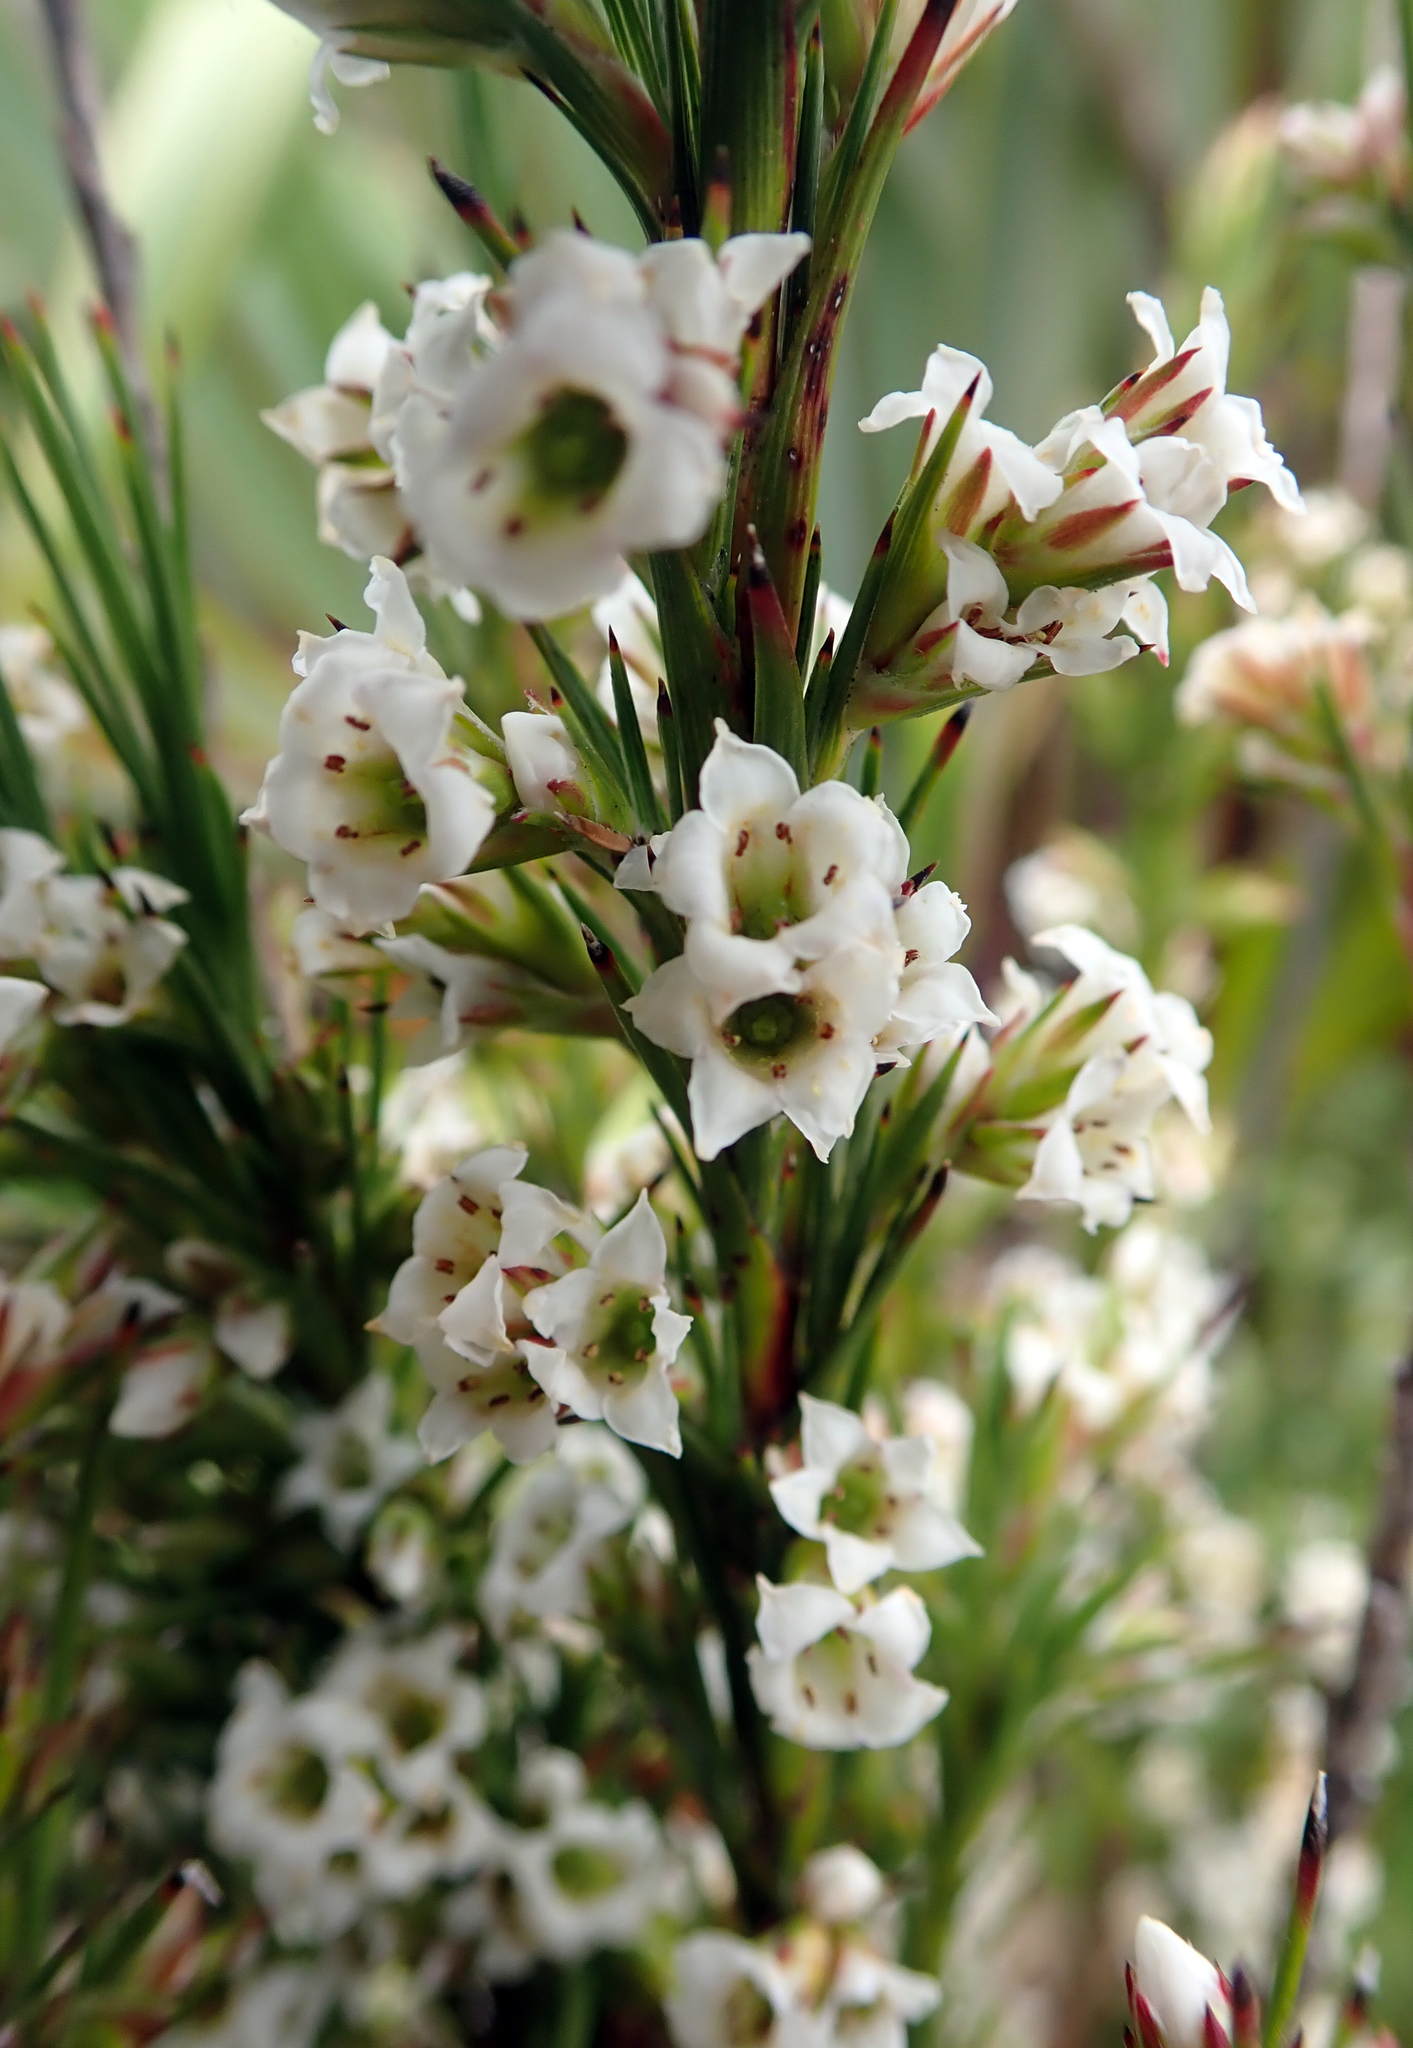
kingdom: Plantae
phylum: Tracheophyta
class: Magnoliopsida
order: Ericales
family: Ericaceae
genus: Dracophyllum
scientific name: Dracophyllum scoparium
